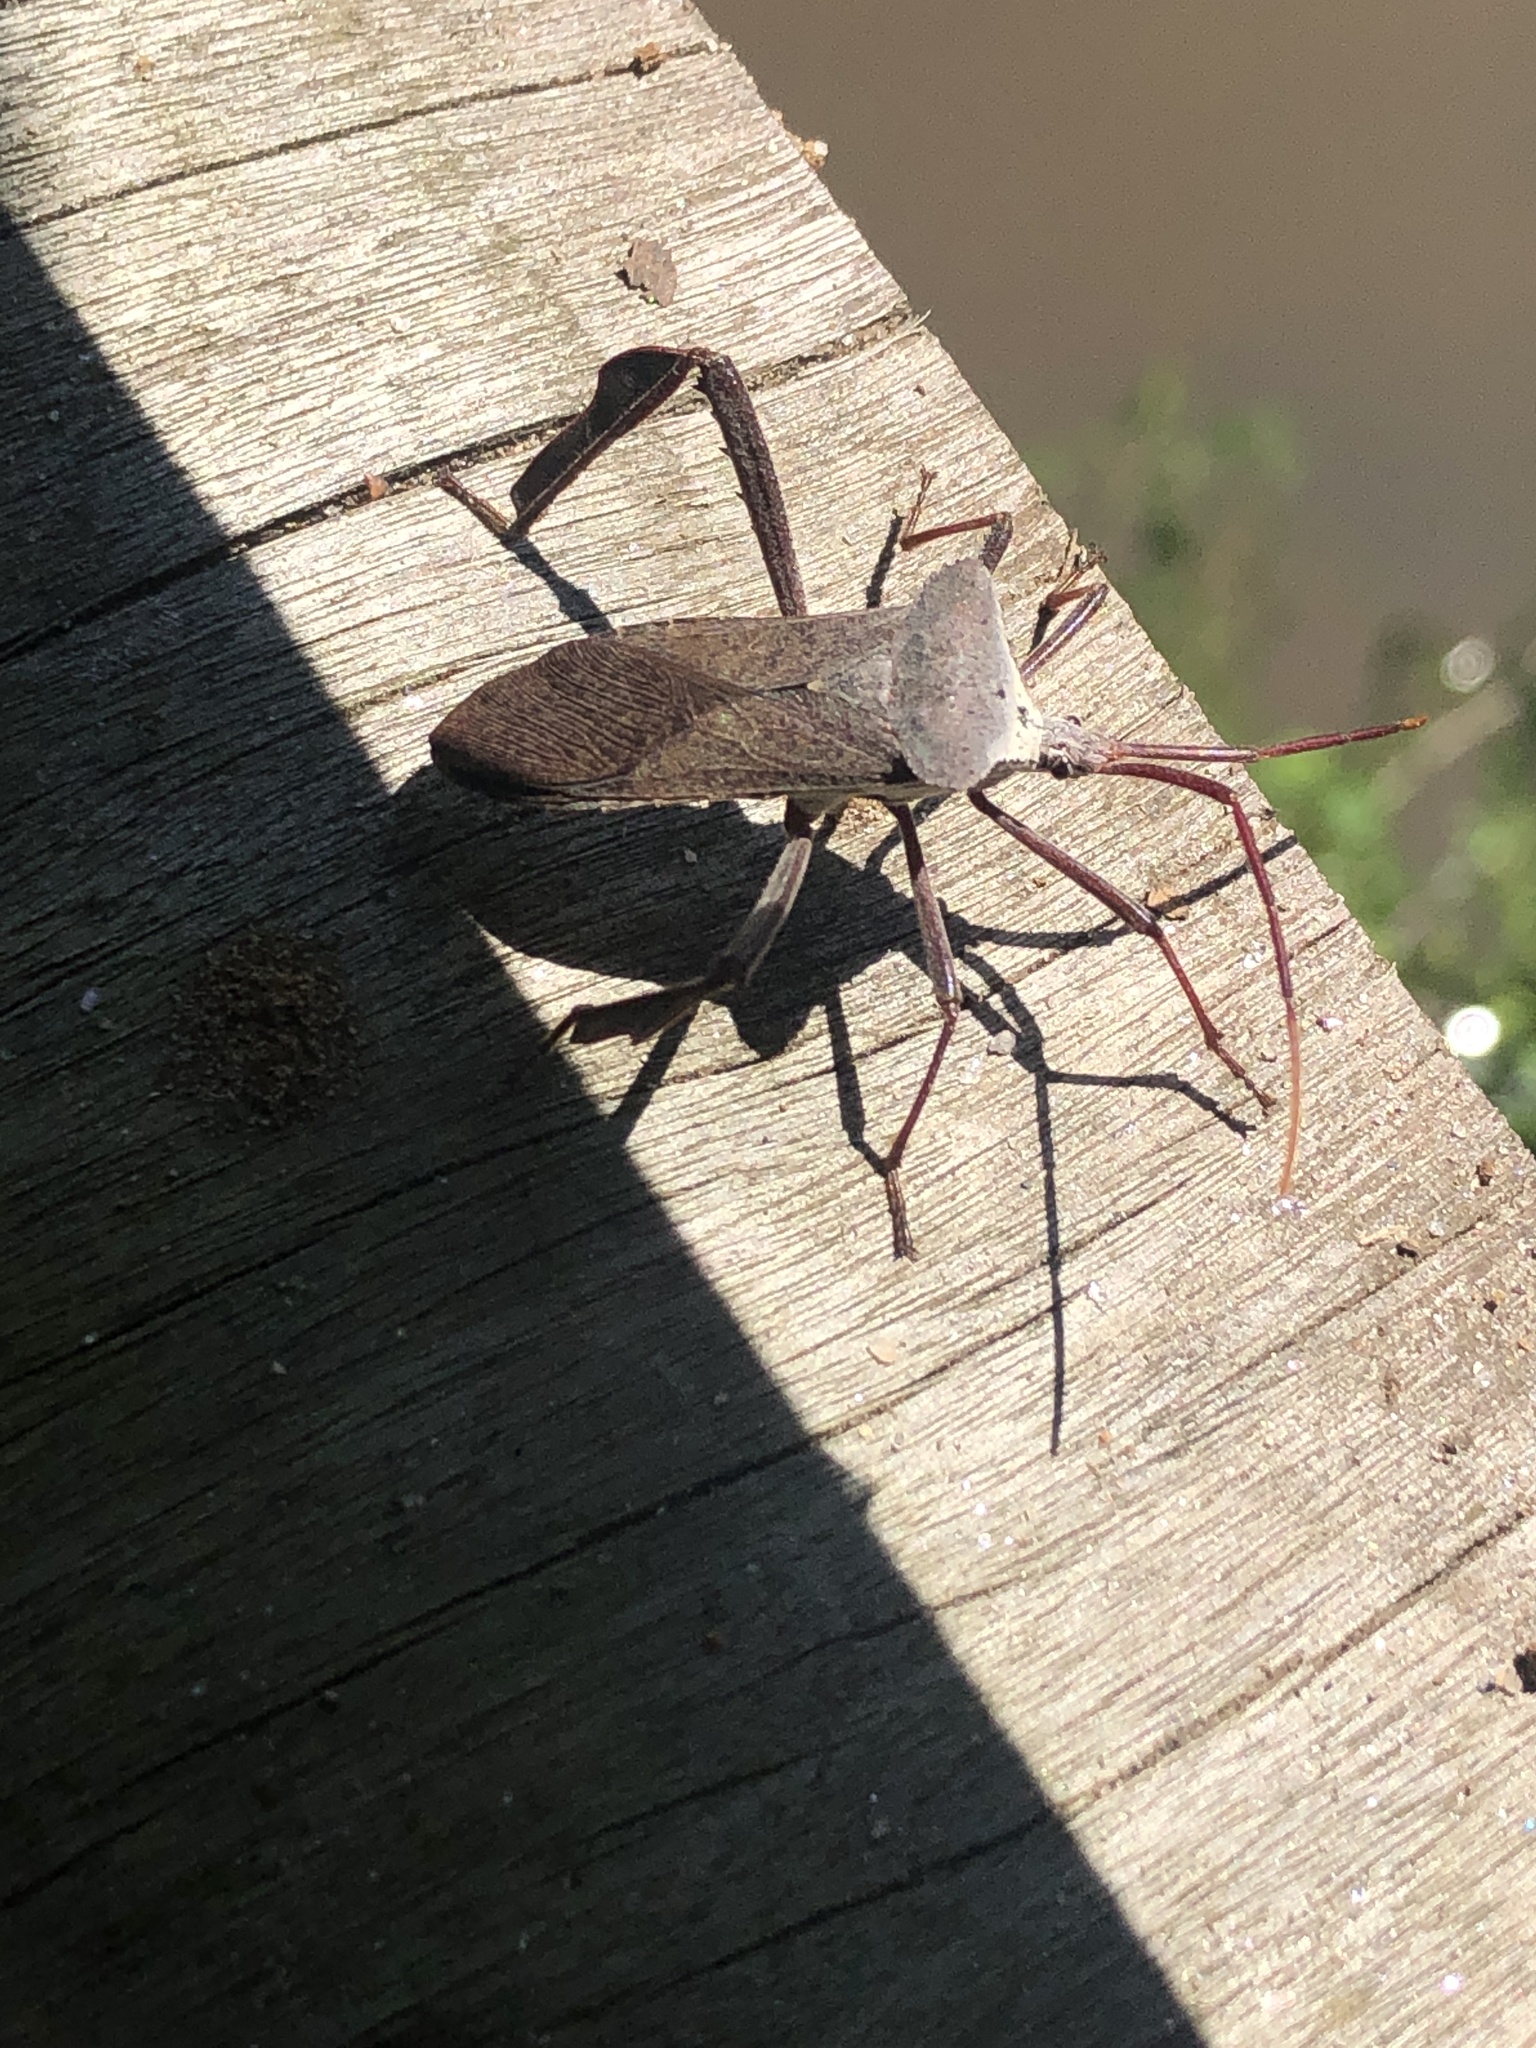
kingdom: Animalia
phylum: Arthropoda
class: Insecta
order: Hemiptera
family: Coreidae
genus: Acanthocephala
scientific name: Acanthocephala declivis
